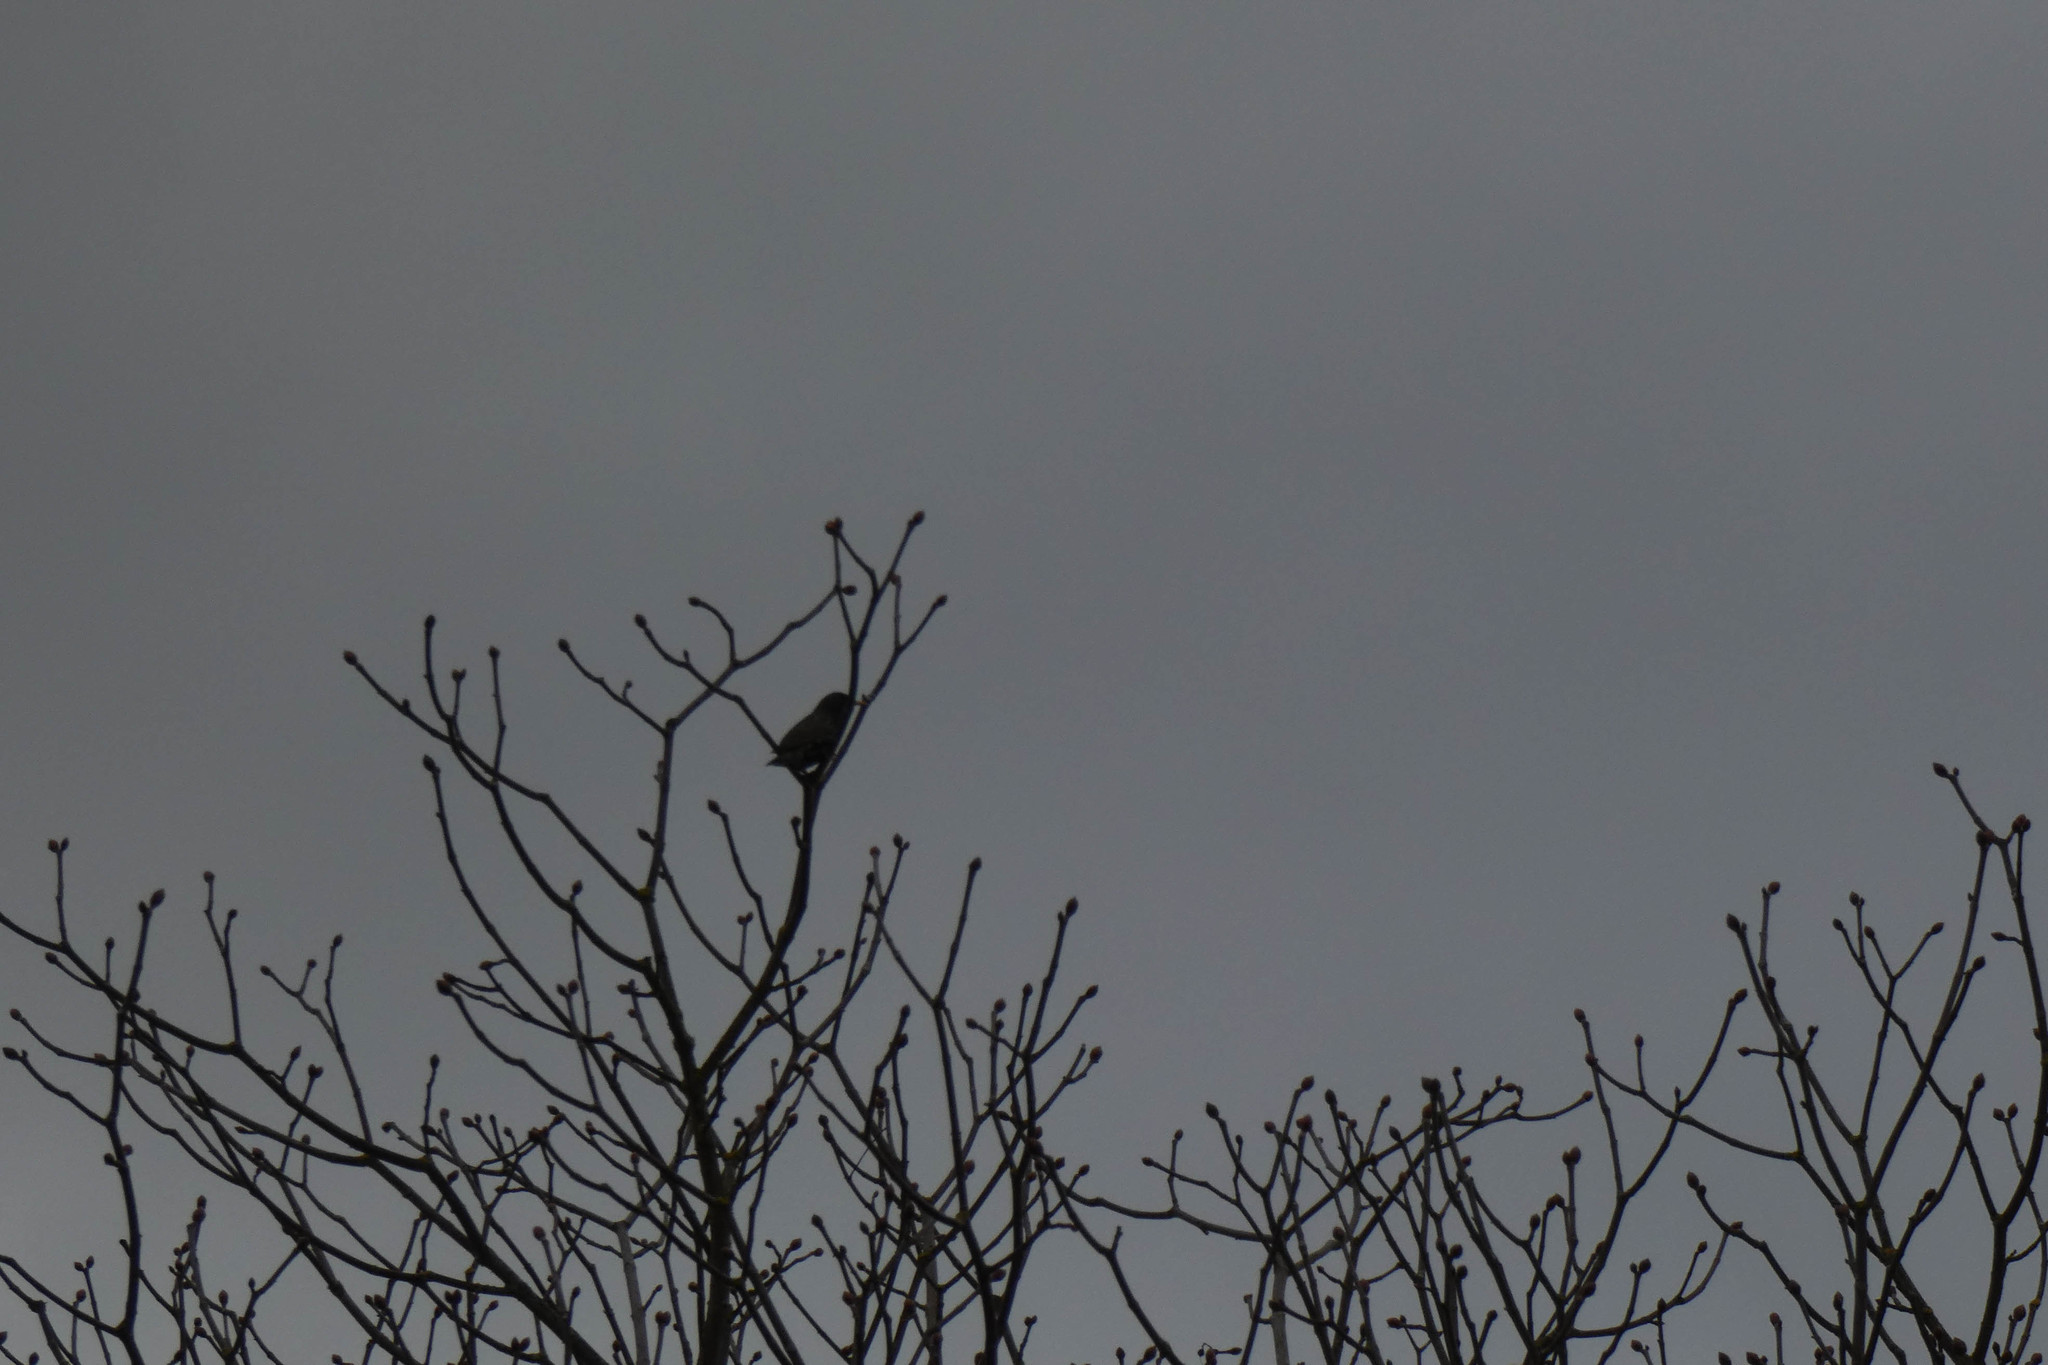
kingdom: Animalia
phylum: Chordata
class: Aves
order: Passeriformes
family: Sturnidae
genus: Sturnus
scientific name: Sturnus vulgaris
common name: Common starling
